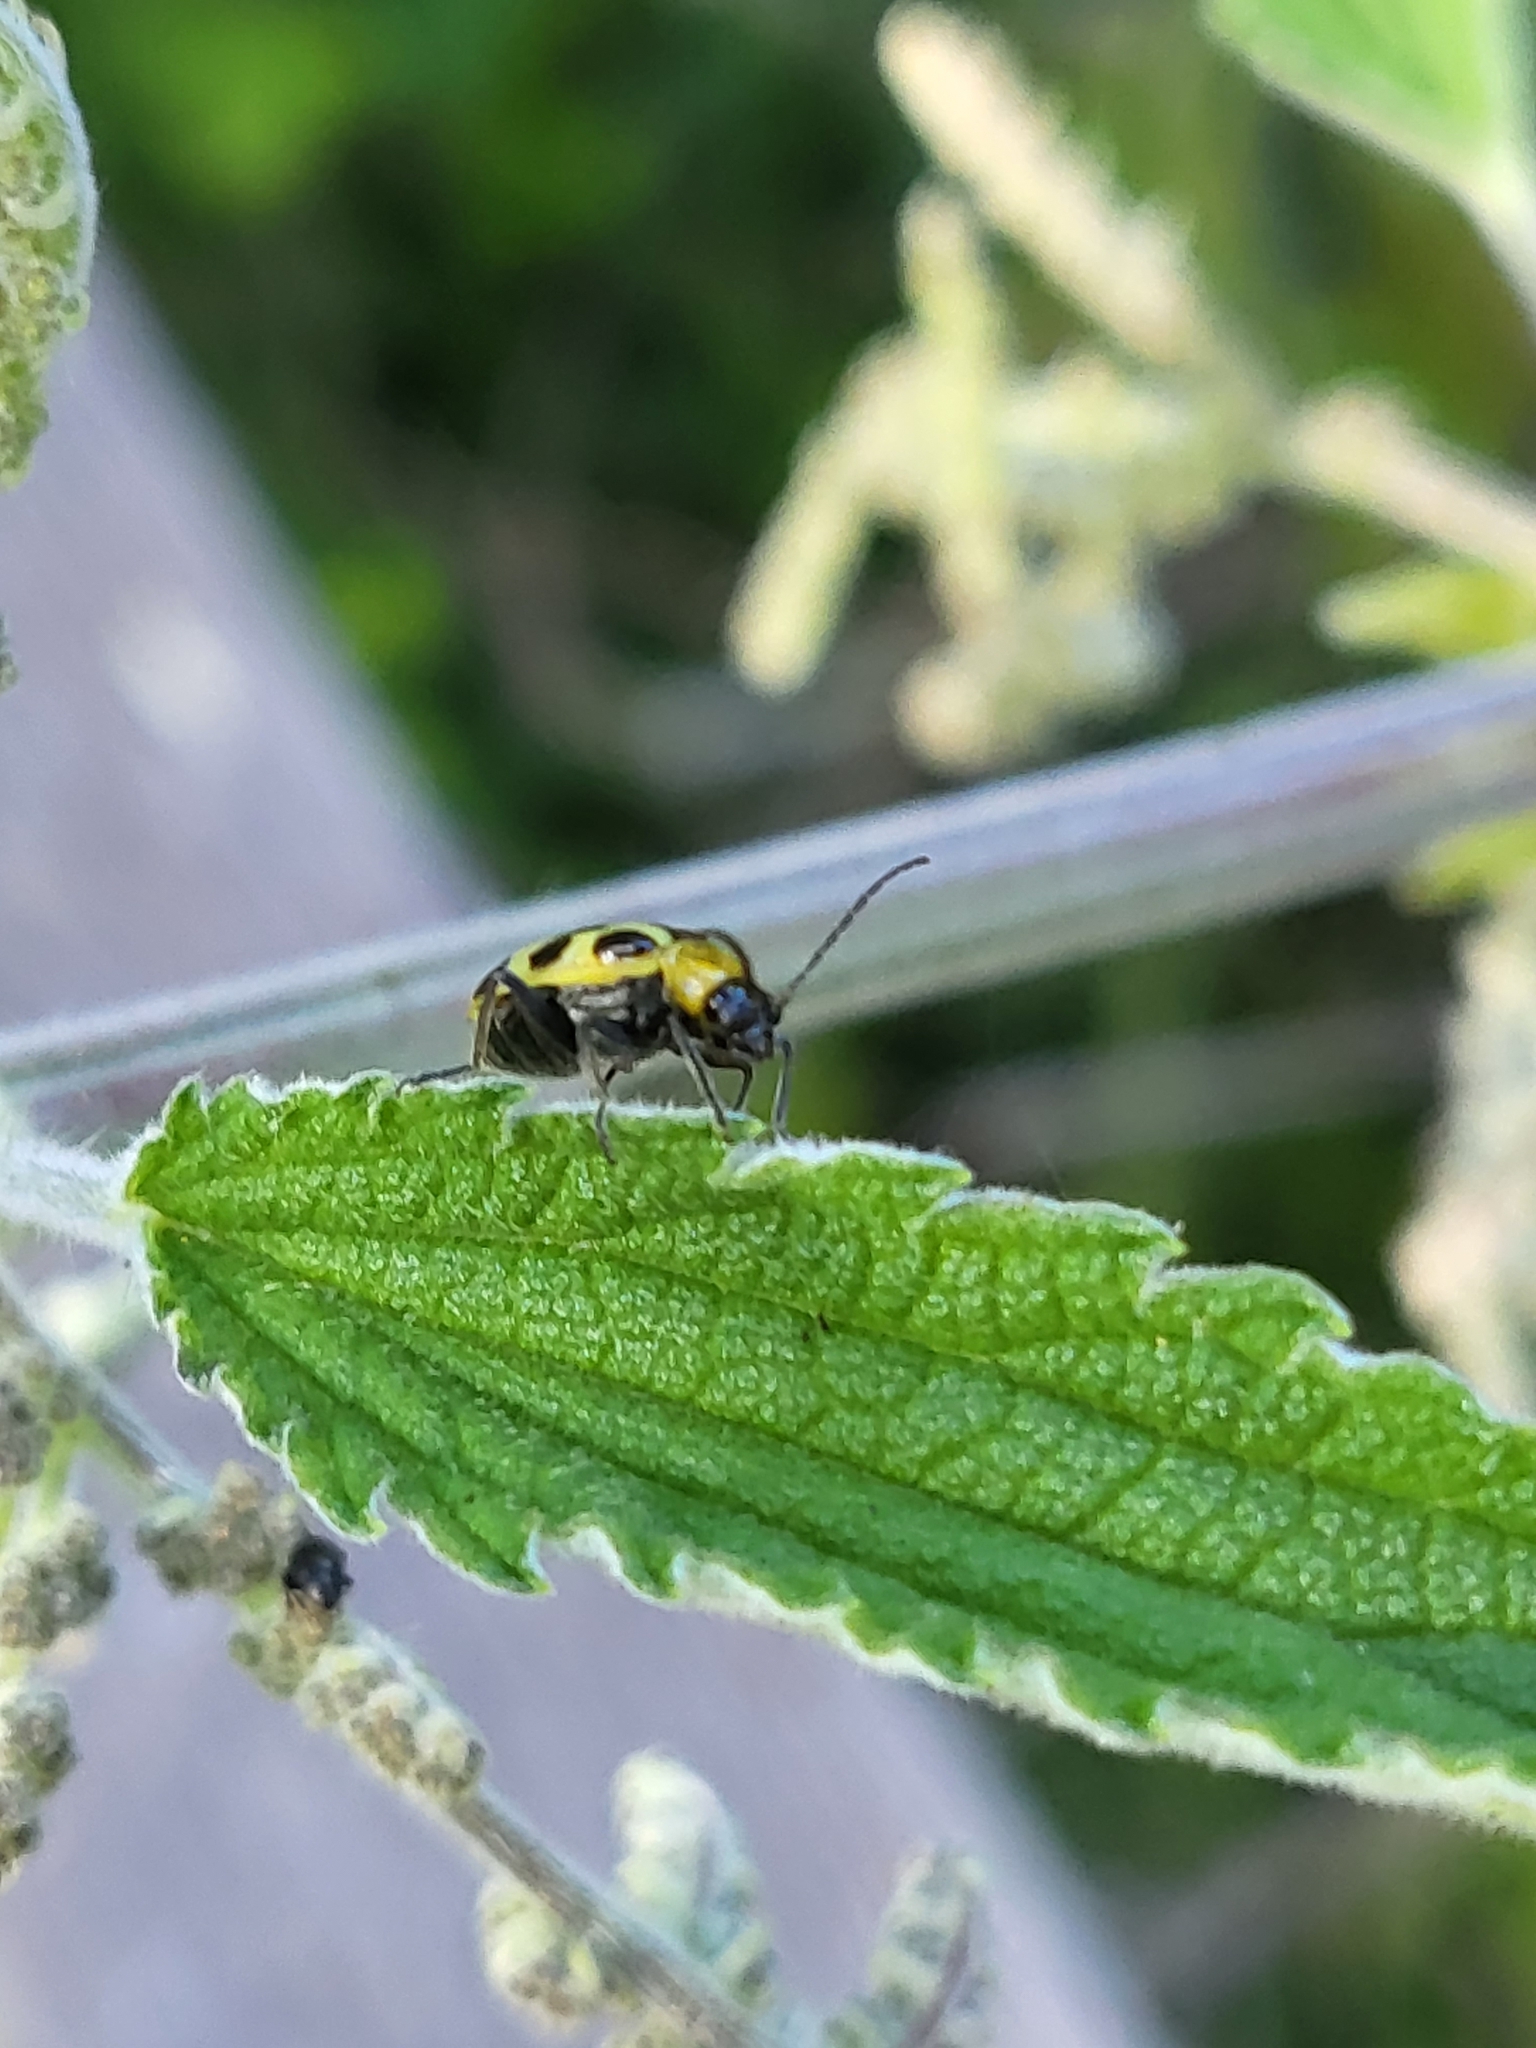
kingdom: Animalia
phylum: Arthropoda
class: Insecta
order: Coleoptera
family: Chrysomelidae
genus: Diabrotica
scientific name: Diabrotica undecimpunctata
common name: Spotted cucumber beetle
